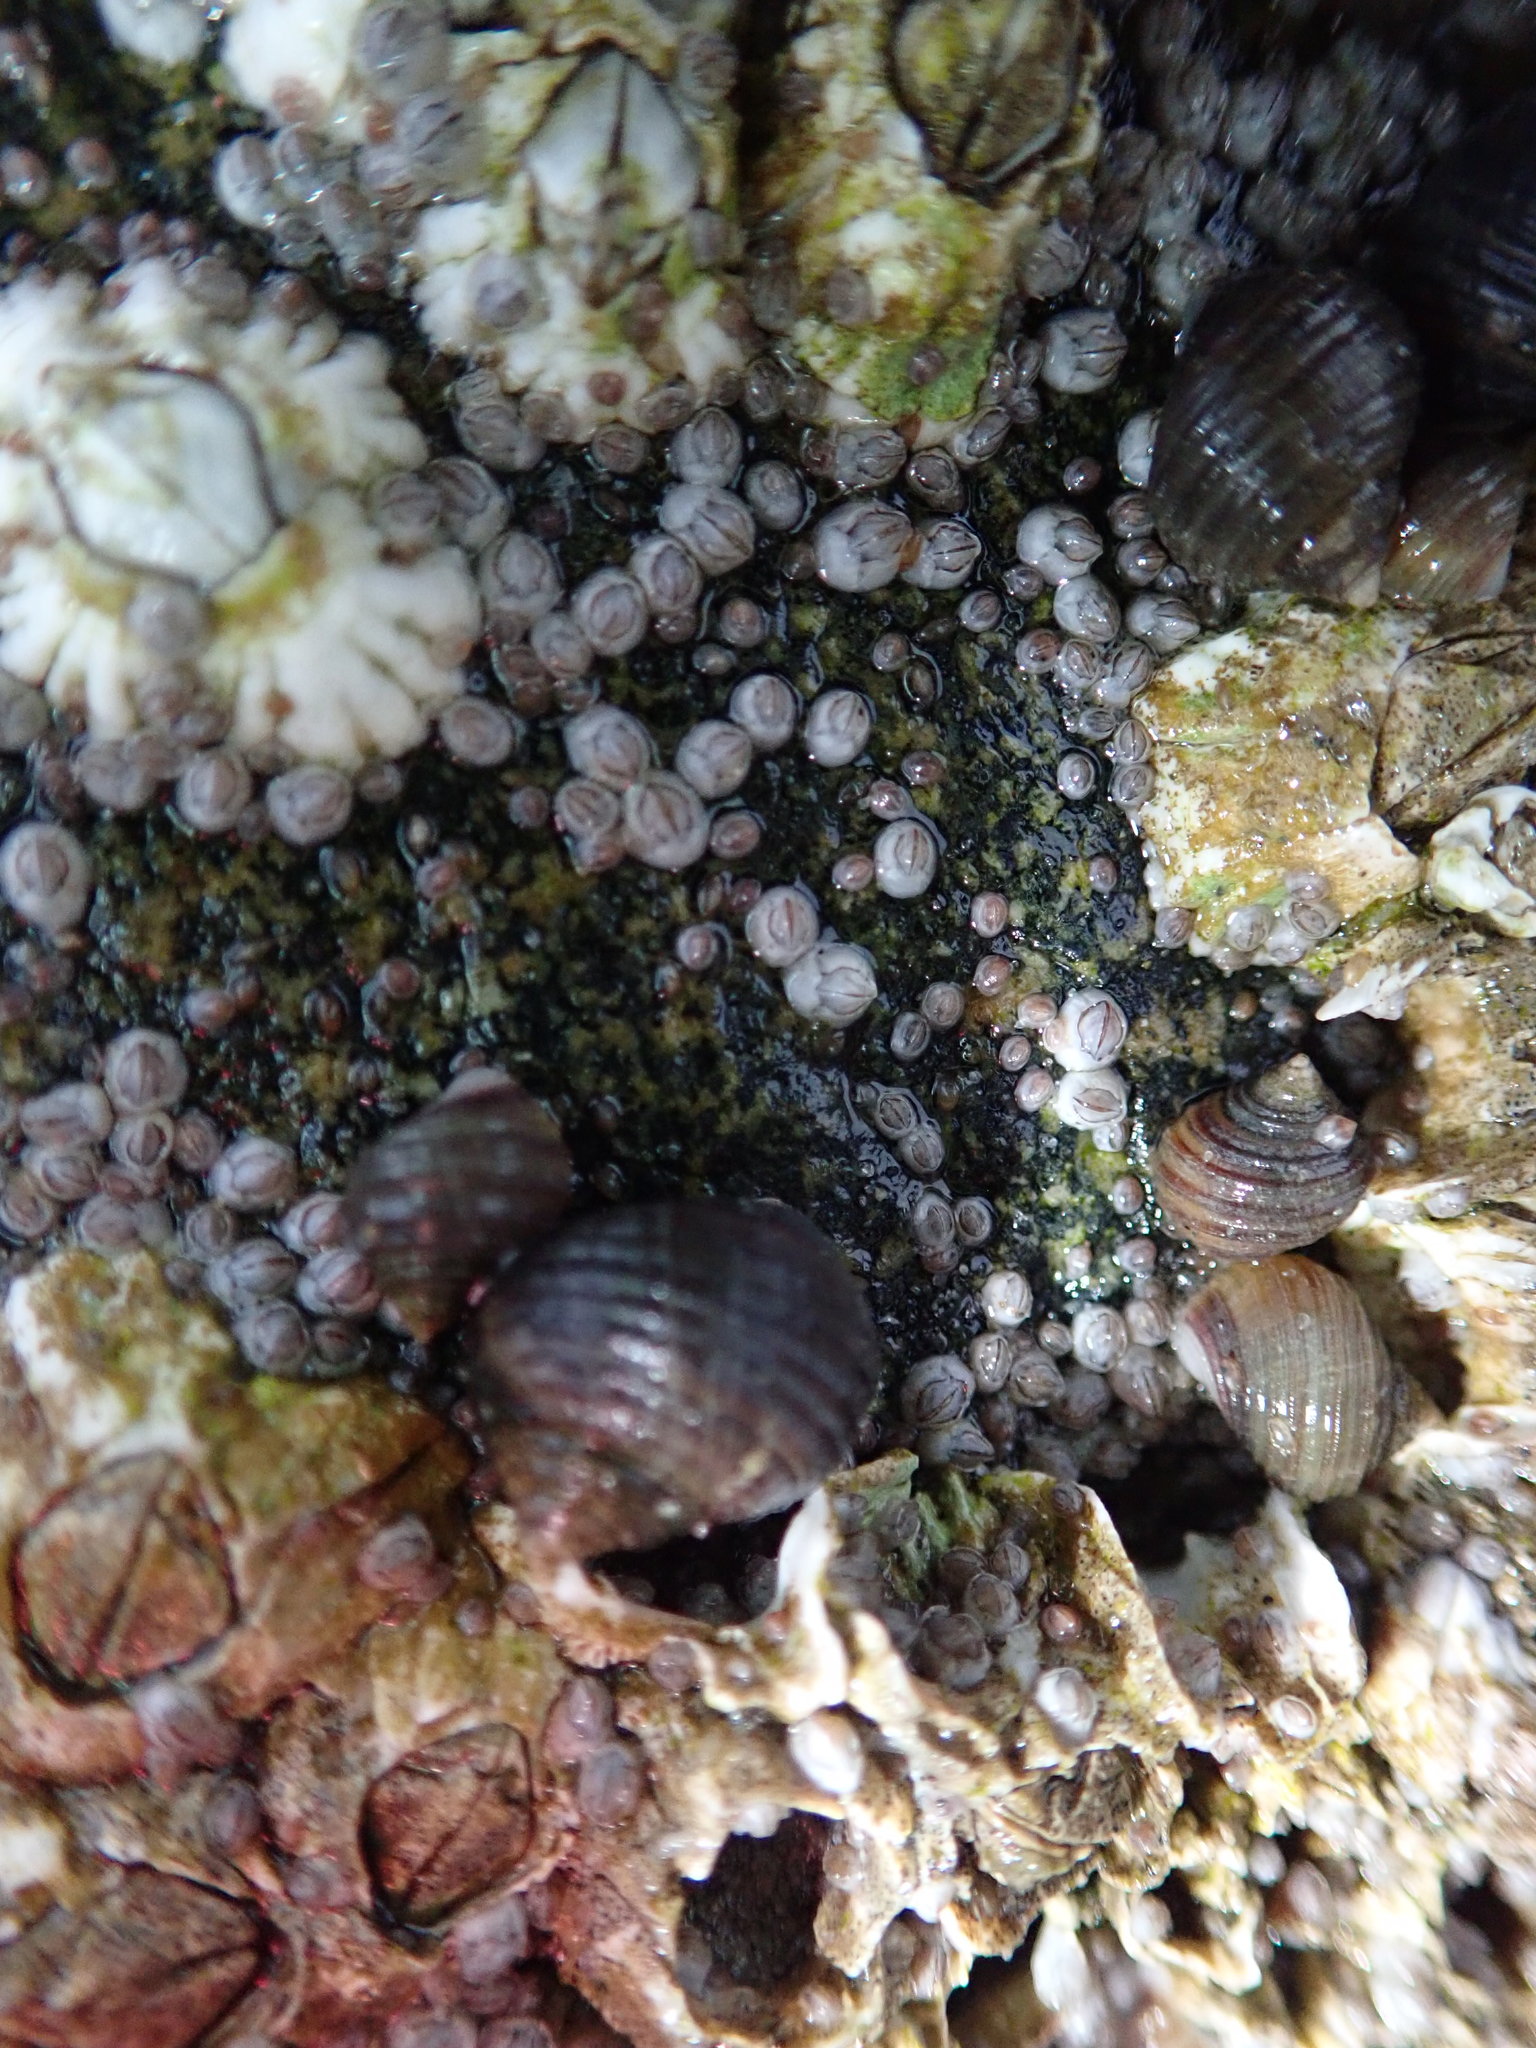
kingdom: Animalia
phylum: Mollusca
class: Gastropoda
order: Littorinimorpha
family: Littorinidae
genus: Littorina
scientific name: Littorina littorea
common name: Common periwinkle
